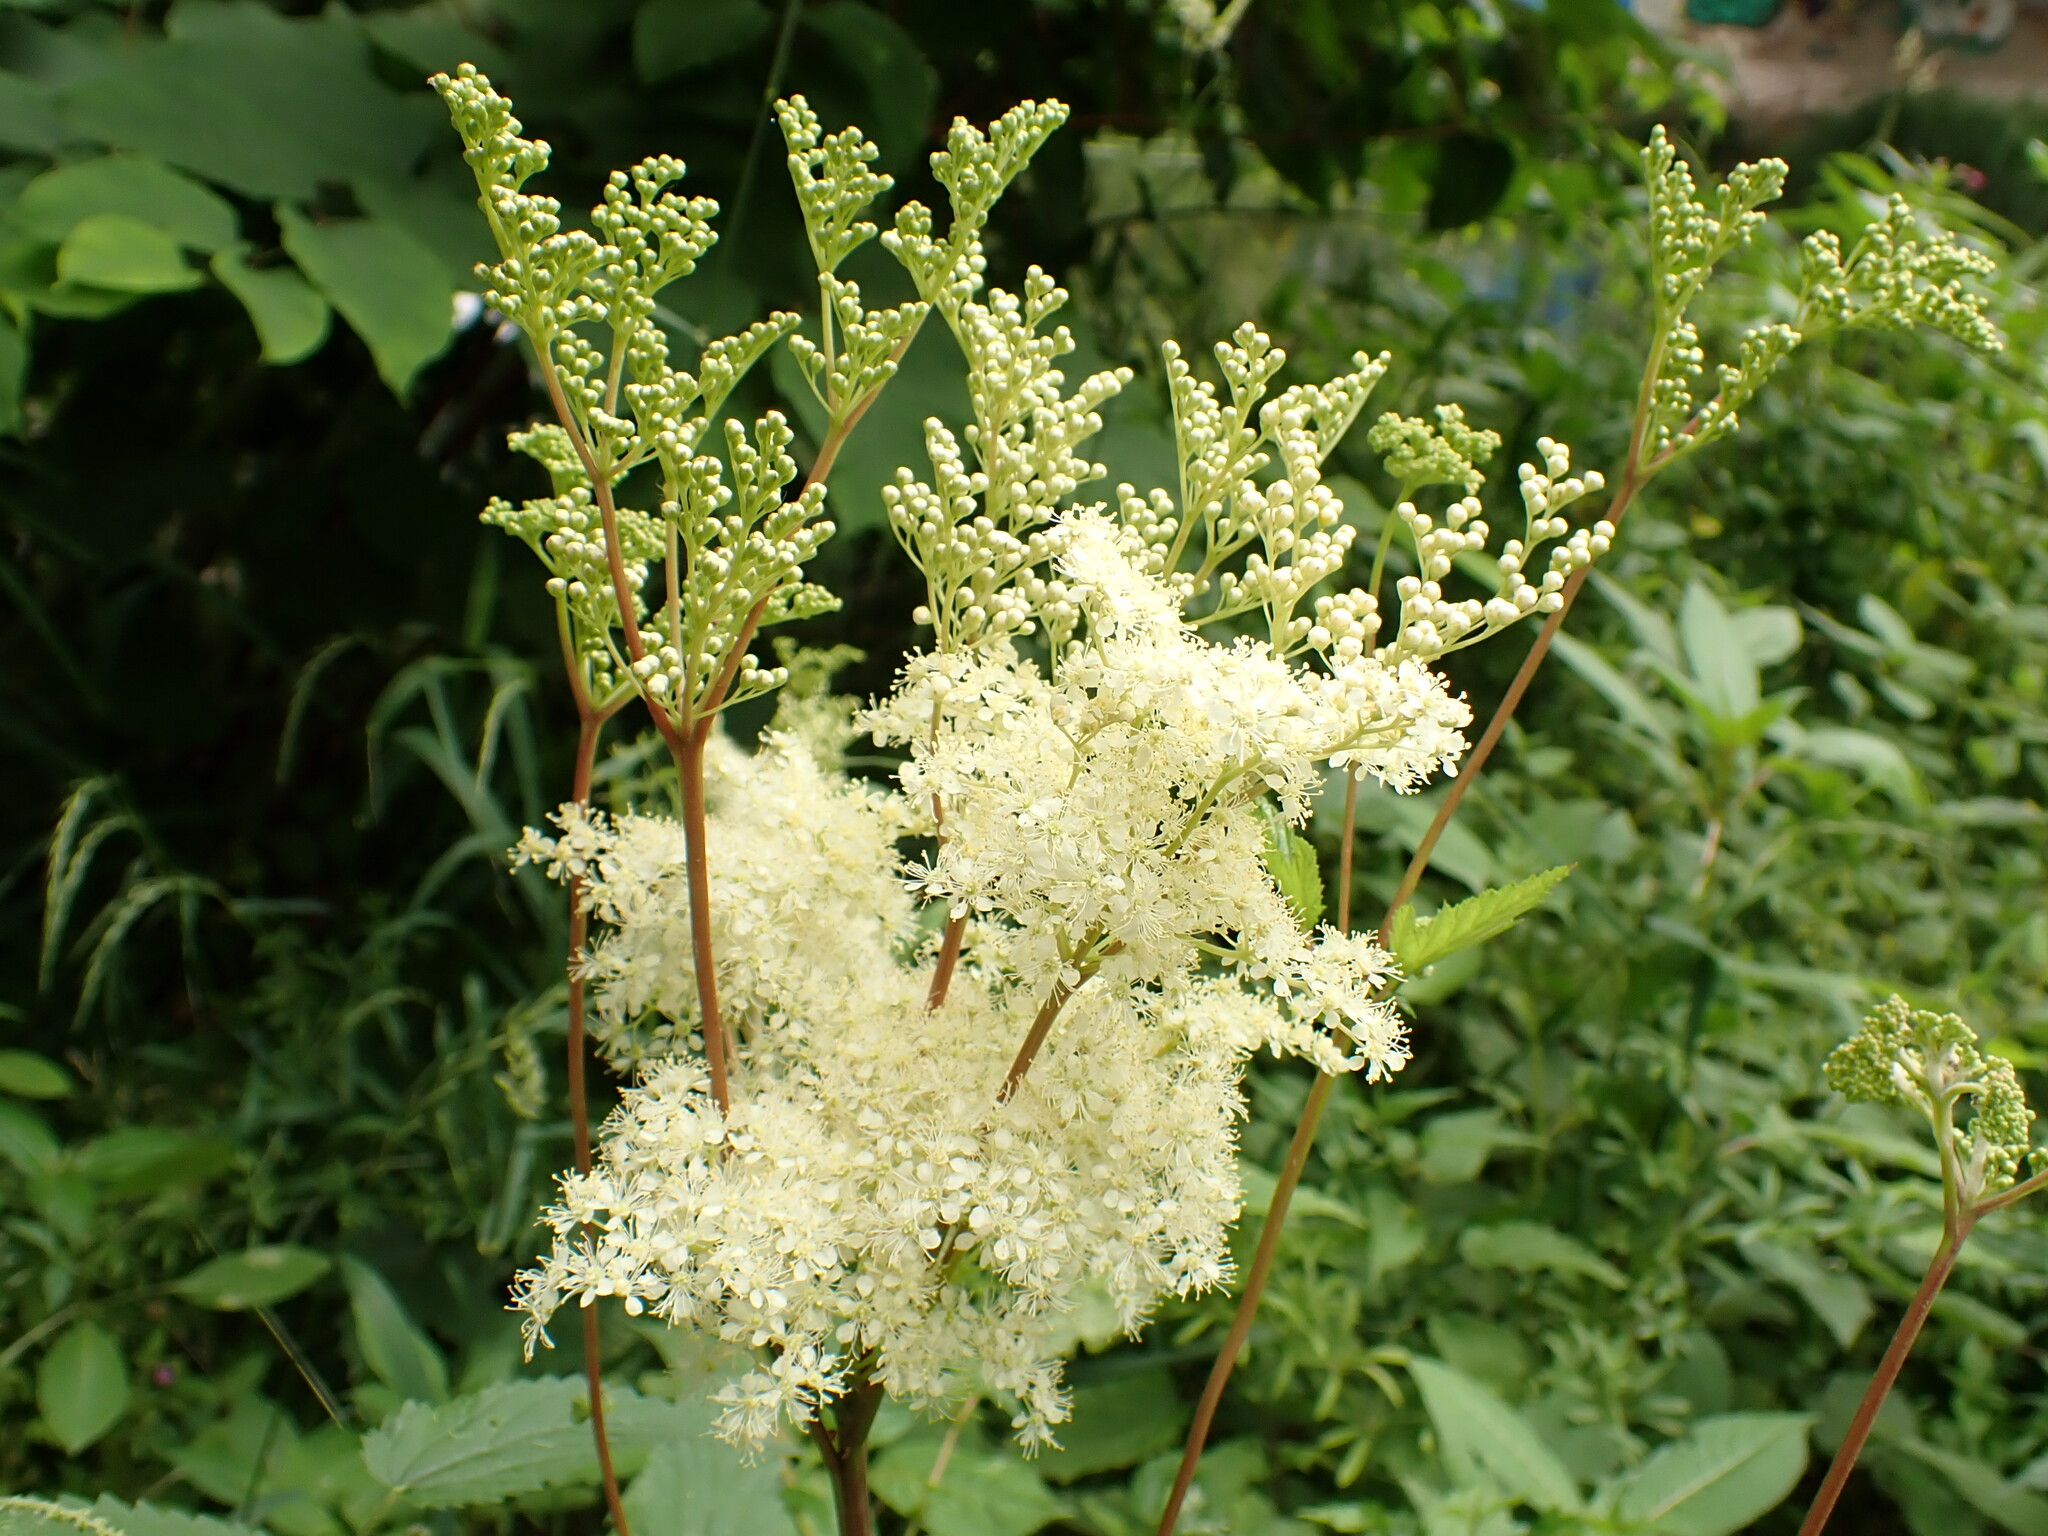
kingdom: Plantae
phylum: Tracheophyta
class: Magnoliopsida
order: Rosales
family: Rosaceae
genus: Filipendula
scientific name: Filipendula ulmaria
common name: Meadowsweet
